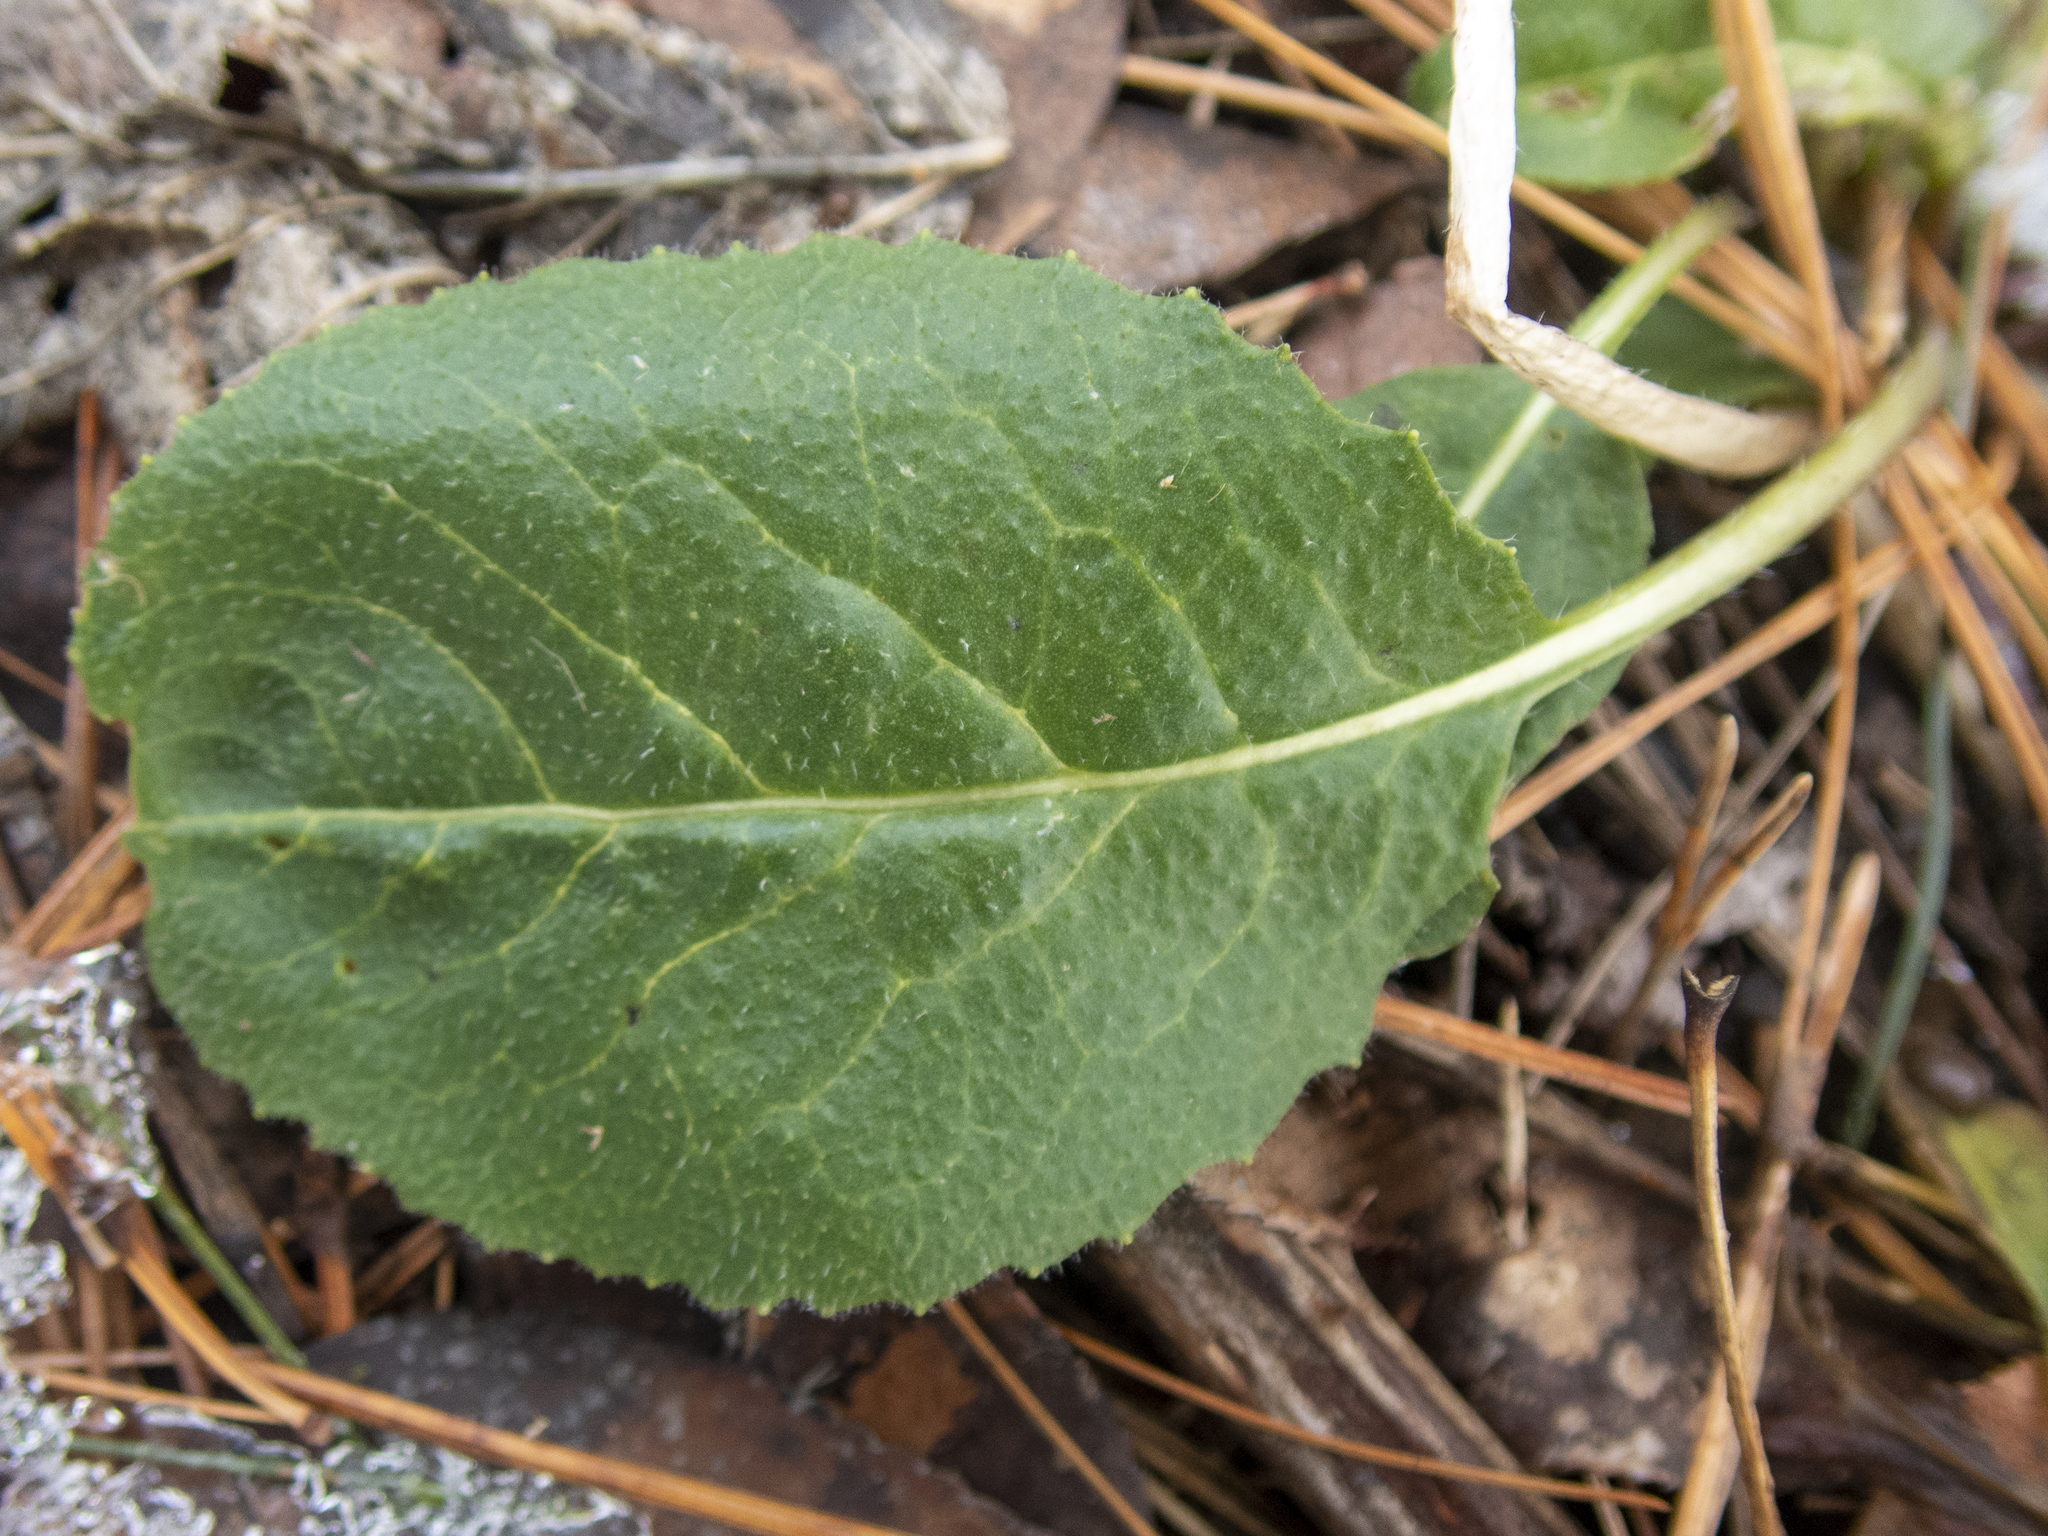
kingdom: Plantae
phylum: Tracheophyta
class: Magnoliopsida
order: Brassicales
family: Brassicaceae
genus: Hesperis
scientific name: Hesperis matronalis
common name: Dame's-violet
